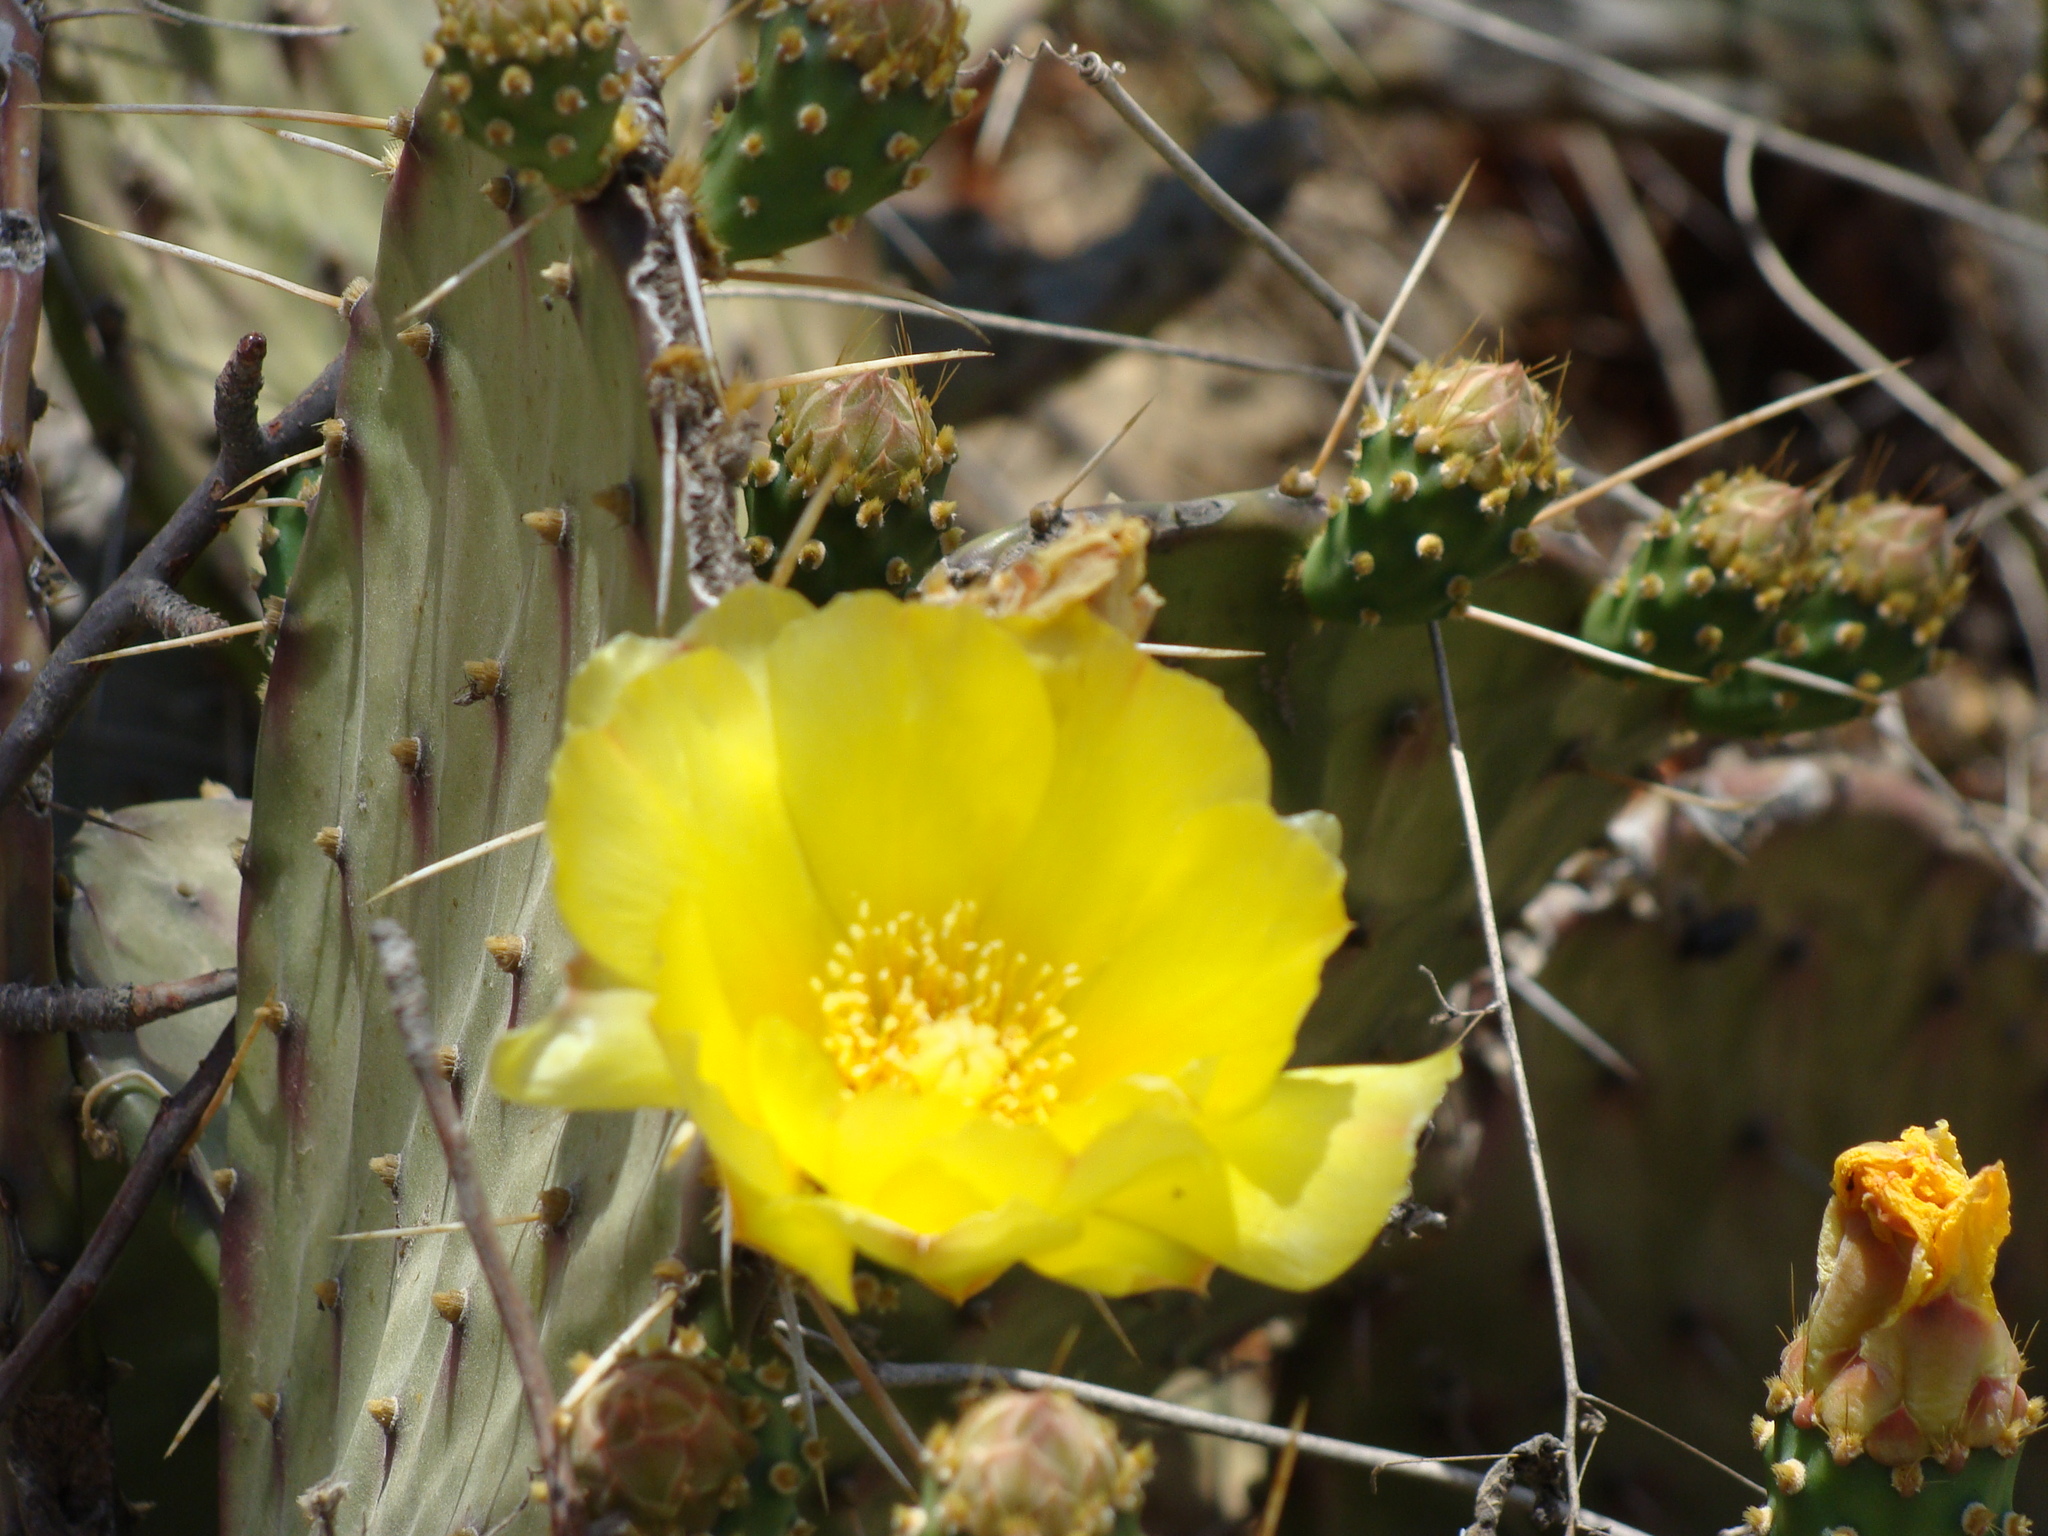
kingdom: Plantae
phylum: Tracheophyta
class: Magnoliopsida
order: Caryophyllales
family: Cactaceae
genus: Opuntia
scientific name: Opuntia bravoana
